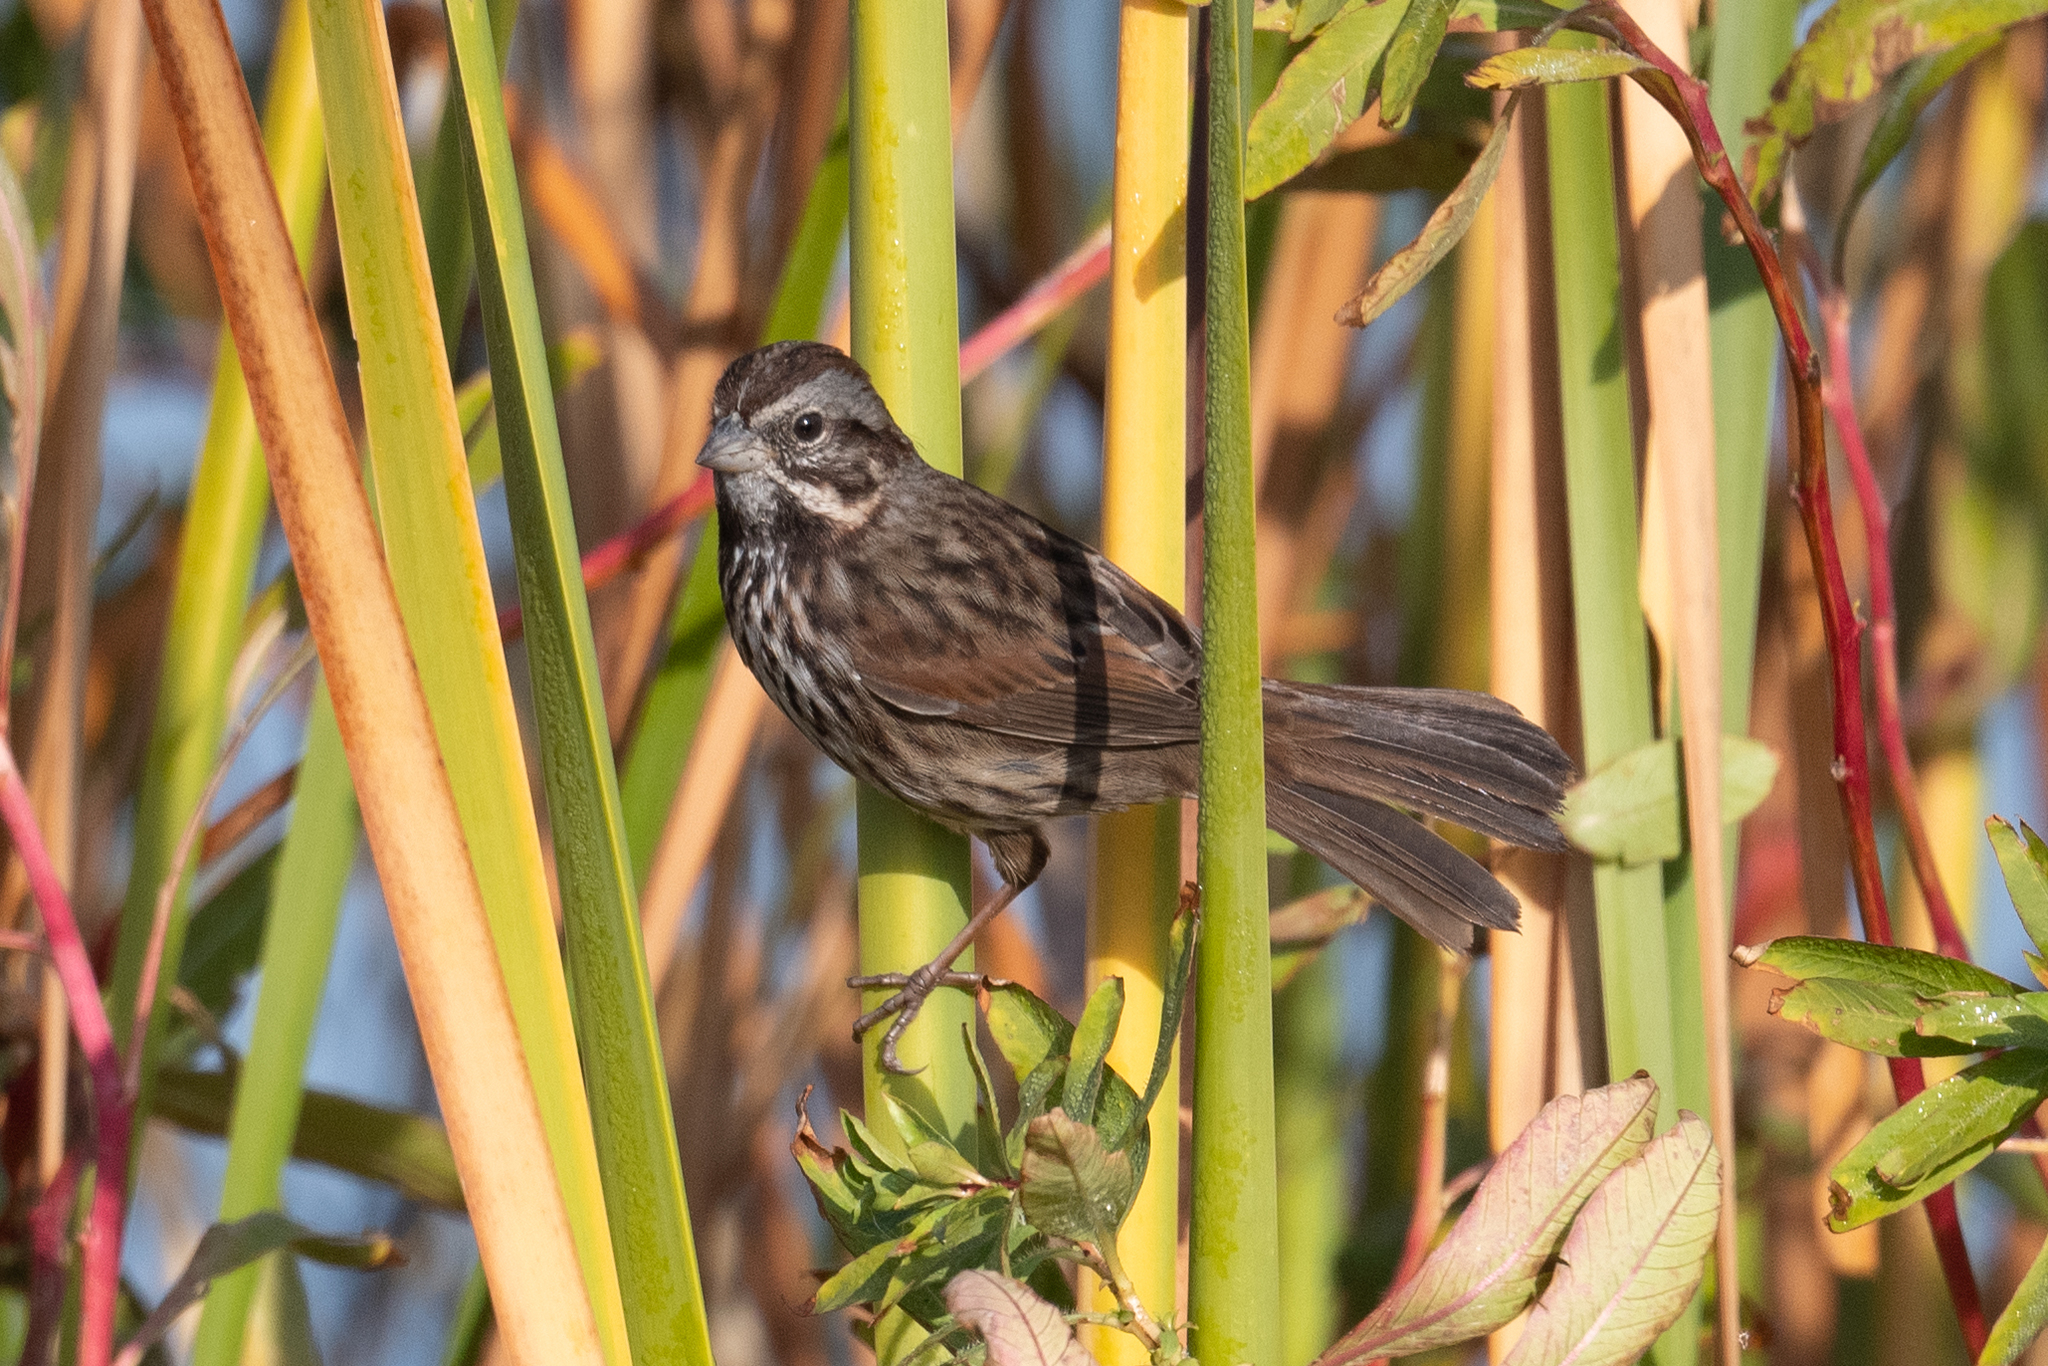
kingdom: Animalia
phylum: Chordata
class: Aves
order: Passeriformes
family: Passerellidae
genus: Melospiza
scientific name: Melospiza melodia
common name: Song sparrow
